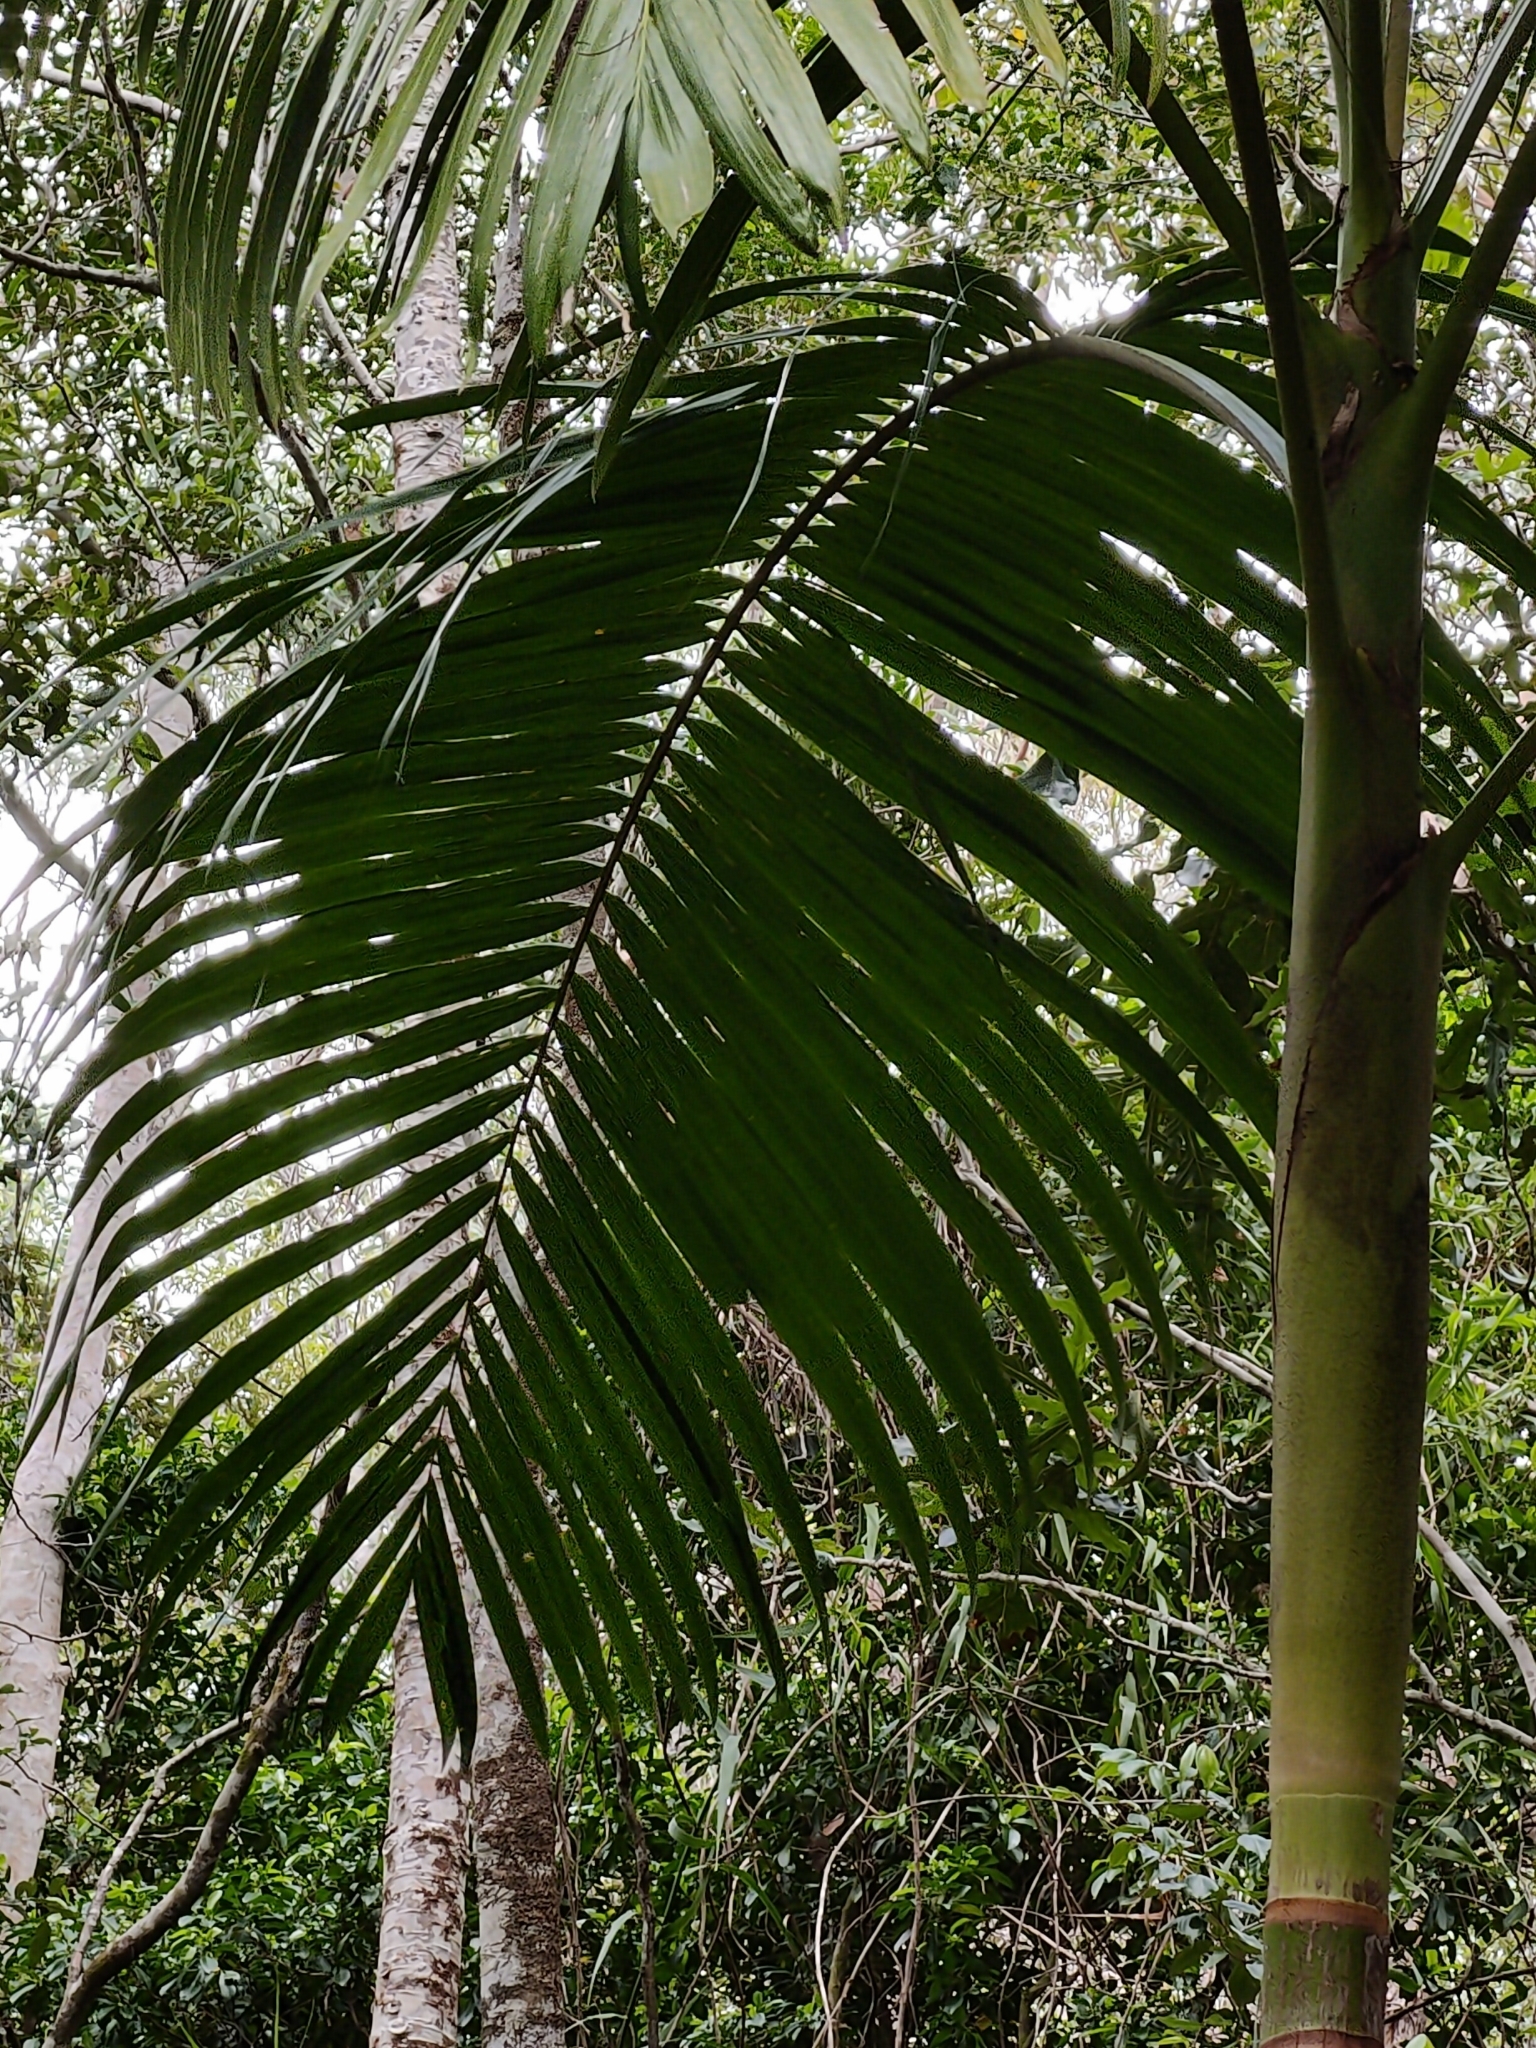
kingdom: Plantae
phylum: Tracheophyta
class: Liliopsida
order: Arecales
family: Arecaceae
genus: Archontophoenix
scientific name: Archontophoenix cunninghamiana
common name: Piccabeen bangalow palm
